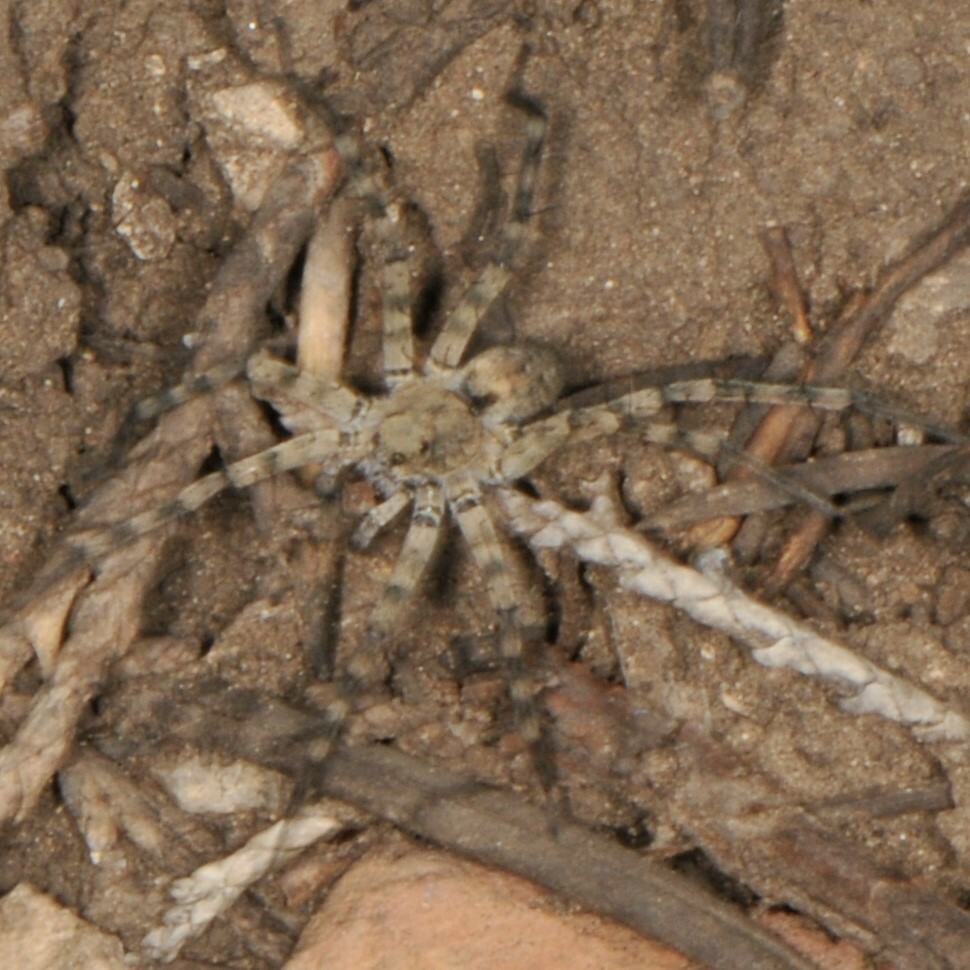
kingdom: Animalia
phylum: Arthropoda
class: Arachnida
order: Araneae
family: Lycosidae
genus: Pardosa
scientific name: Pardosa
